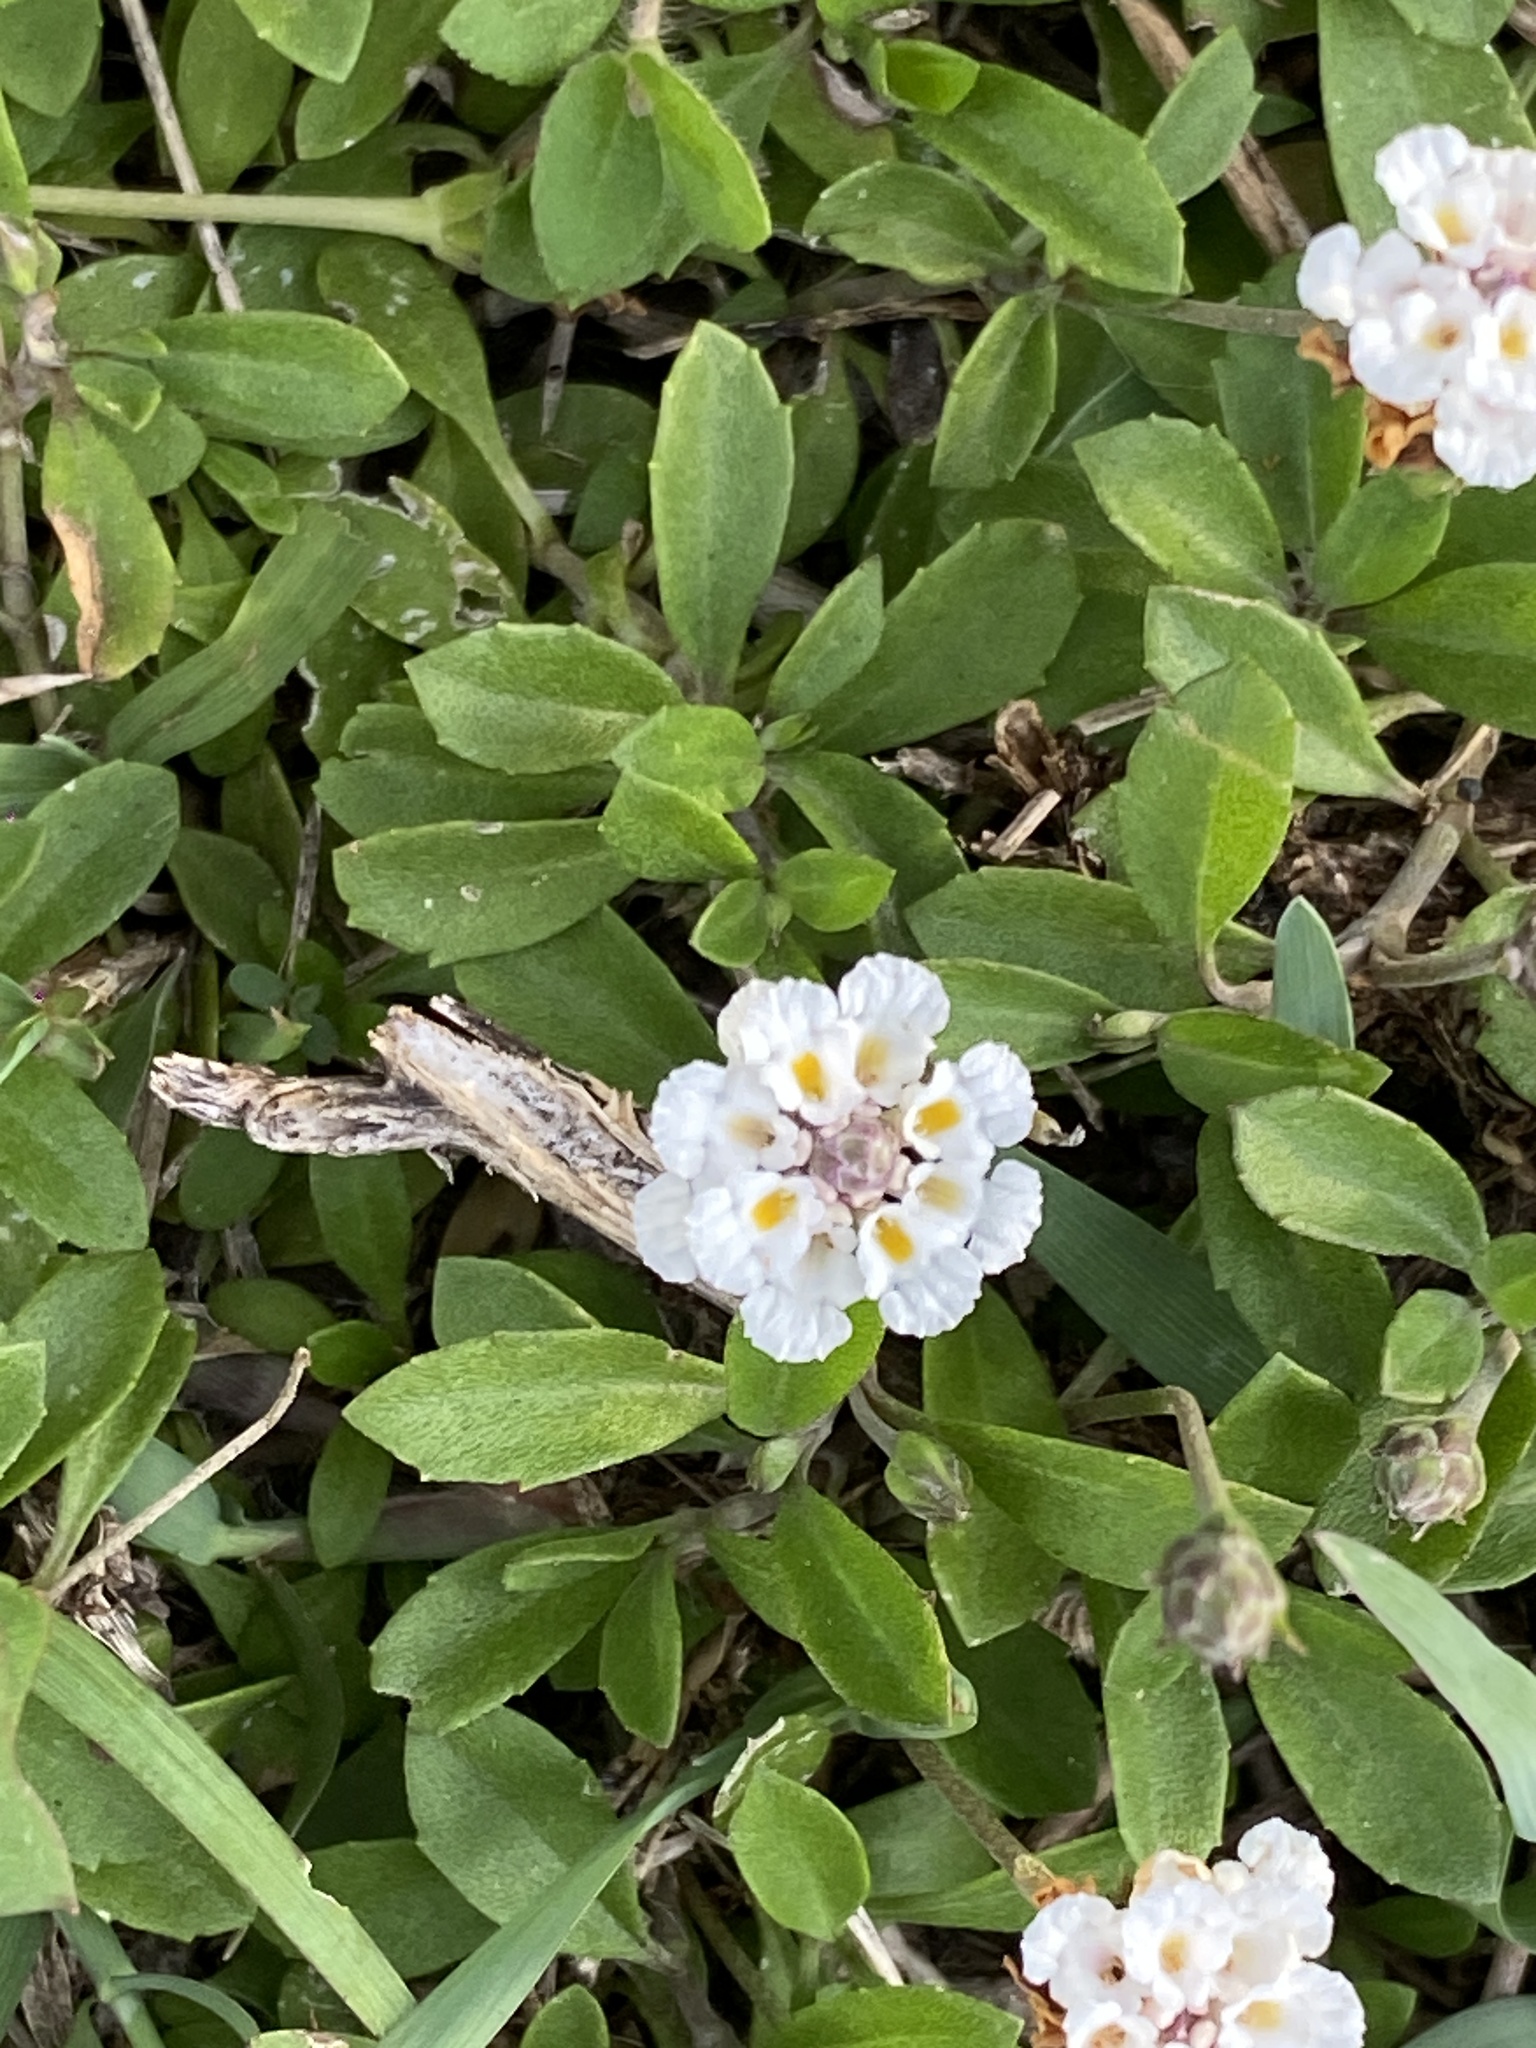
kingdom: Plantae
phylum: Tracheophyta
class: Magnoliopsida
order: Lamiales
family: Verbenaceae
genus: Phyla
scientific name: Phyla nodiflora
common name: Frogfruit
